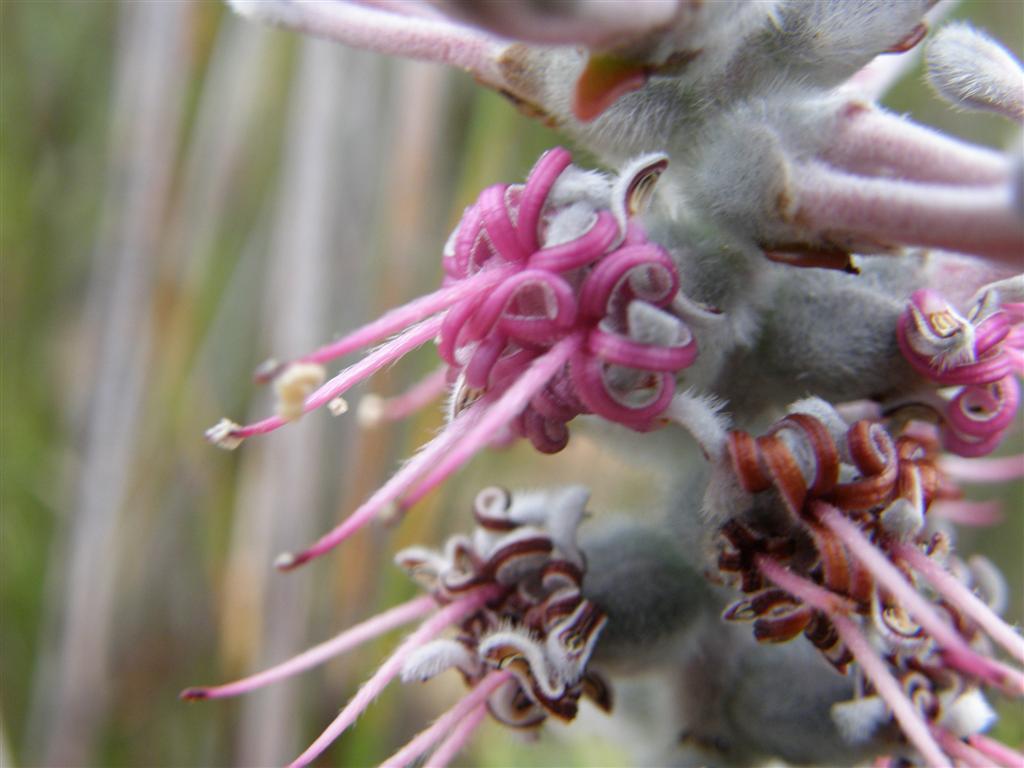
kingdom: Plantae
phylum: Tracheophyta
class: Magnoliopsida
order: Proteales
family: Proteaceae
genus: Paranomus
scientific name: Paranomus dispersus
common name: Long-head sceptre
